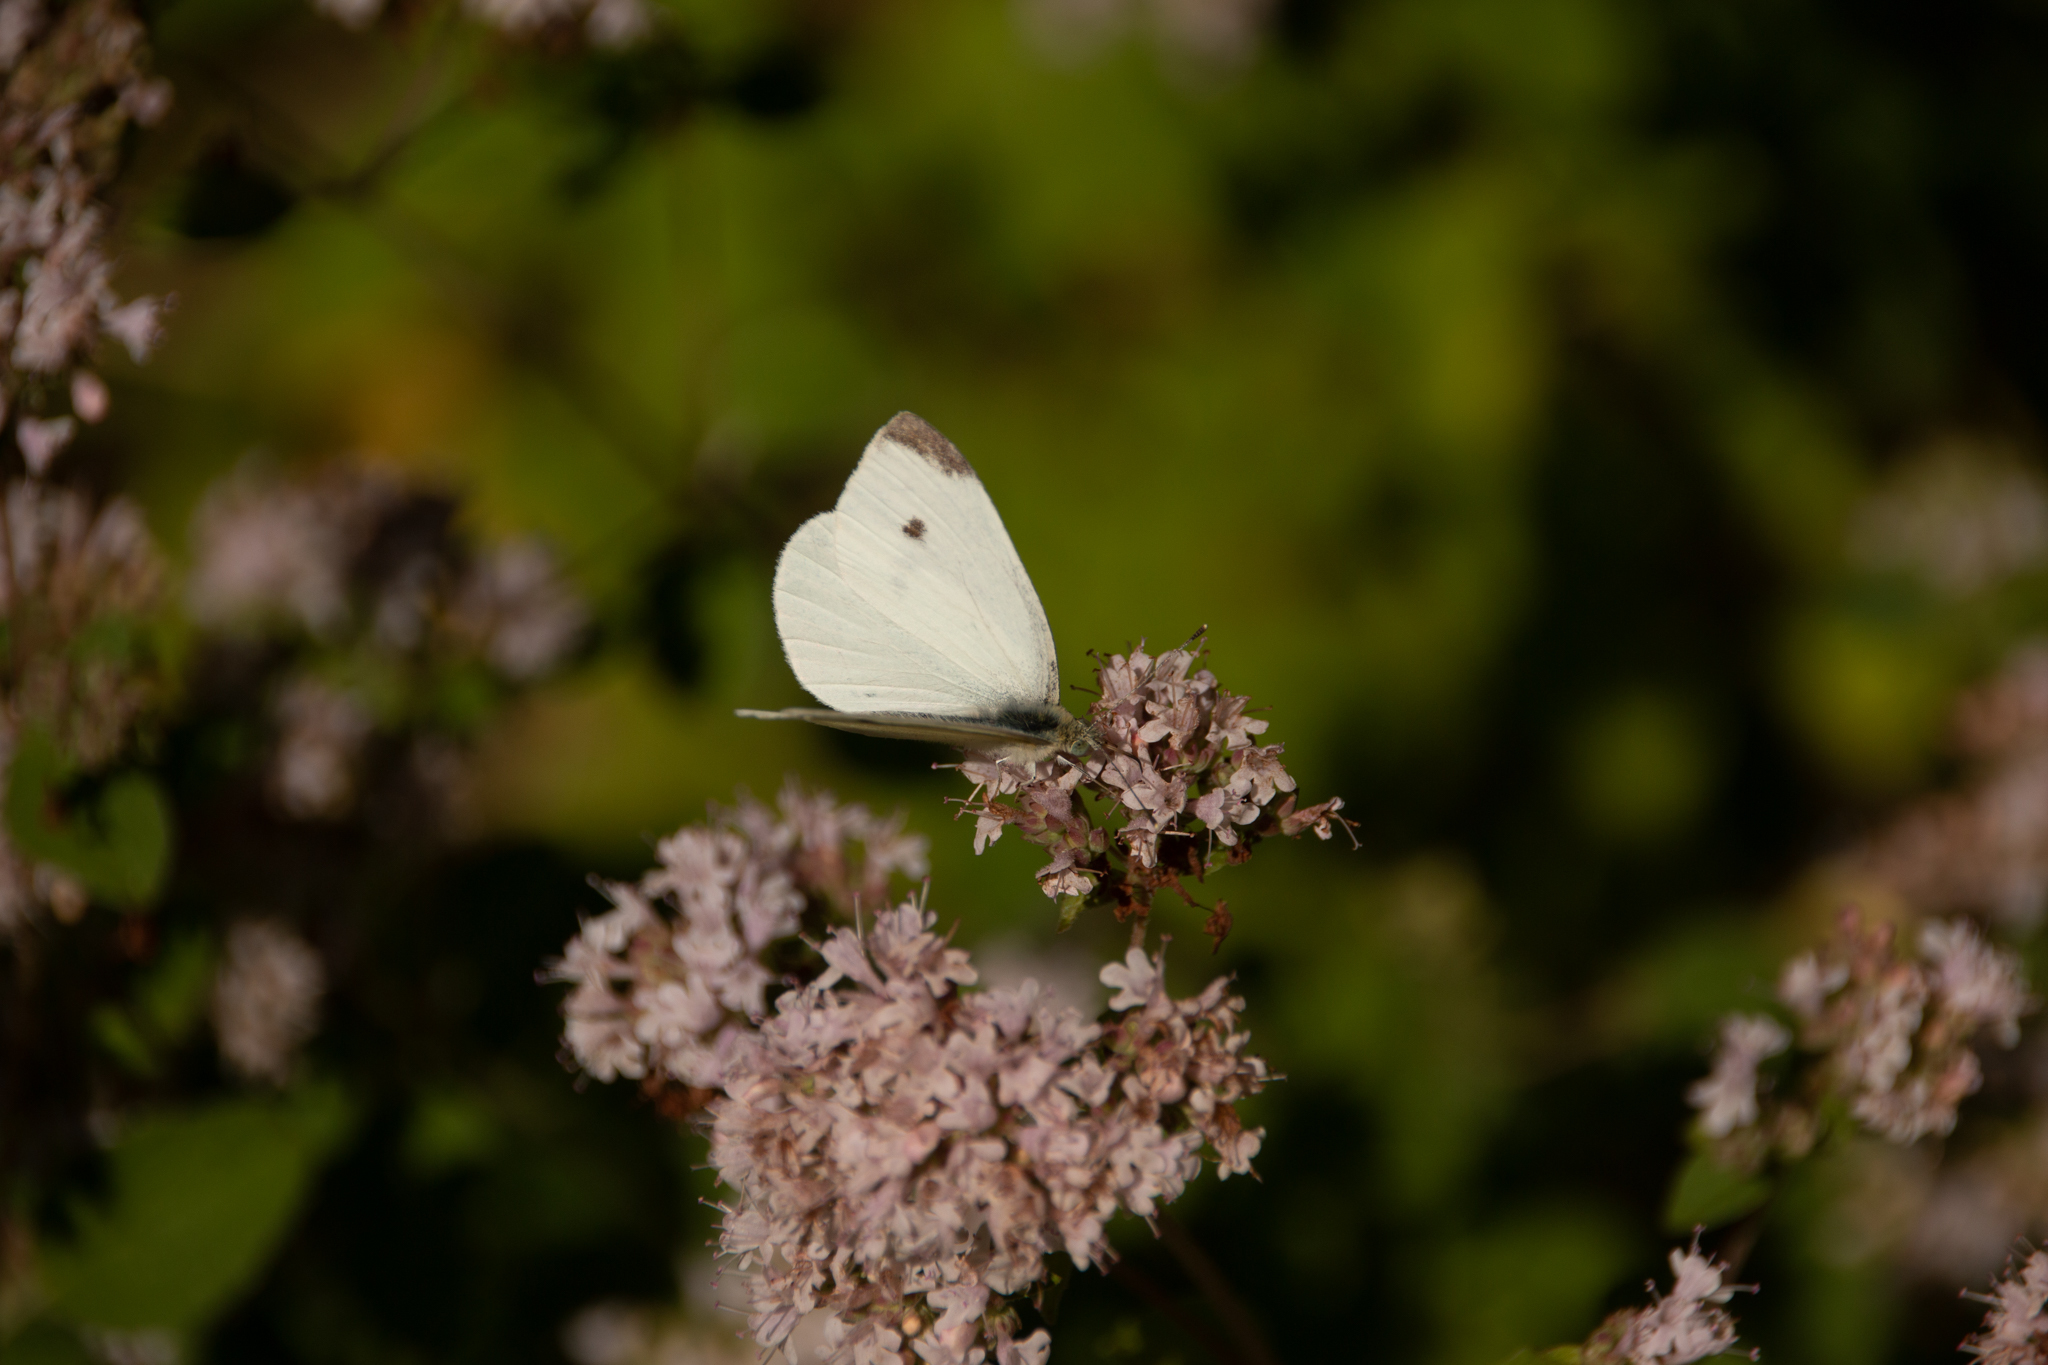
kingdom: Animalia
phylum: Arthropoda
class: Insecta
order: Lepidoptera
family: Pieridae
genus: Pieris
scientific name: Pieris rapae
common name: Small white
